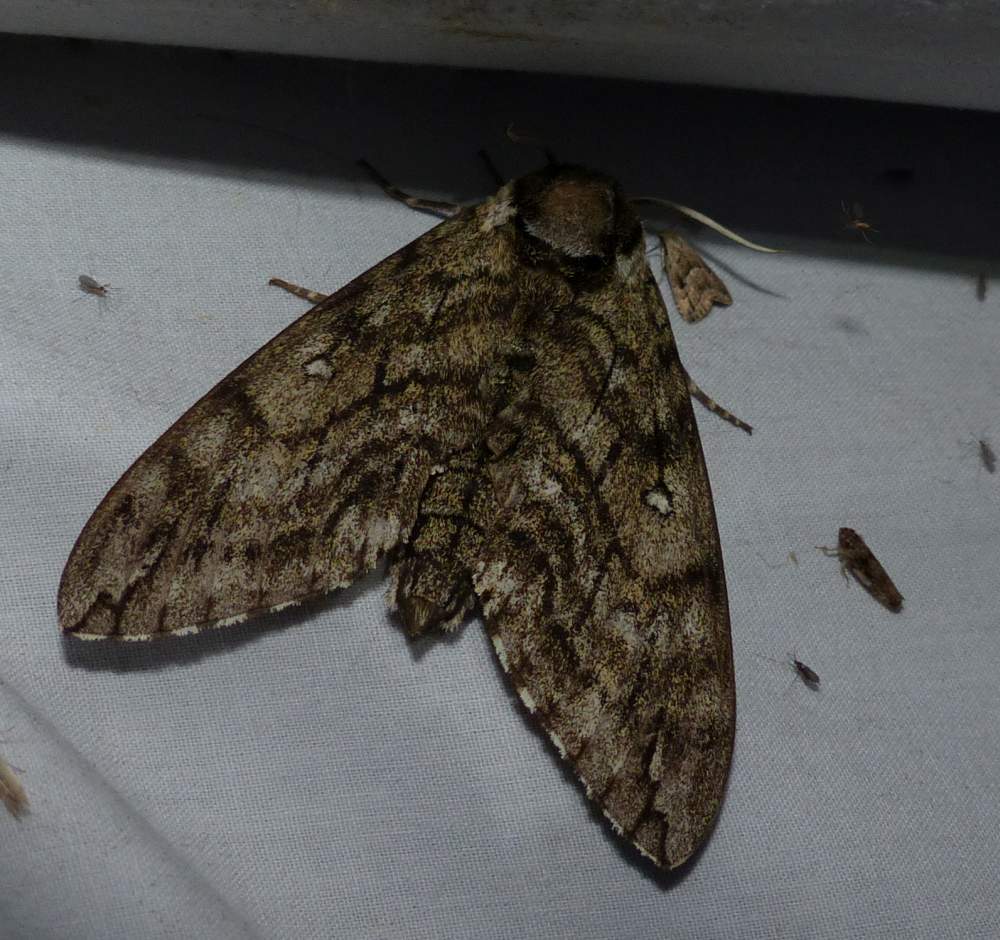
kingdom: Animalia
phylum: Arthropoda
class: Insecta
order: Lepidoptera
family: Sphingidae
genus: Ceratomia
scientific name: Ceratomia undulosa
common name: Waved sphinx
